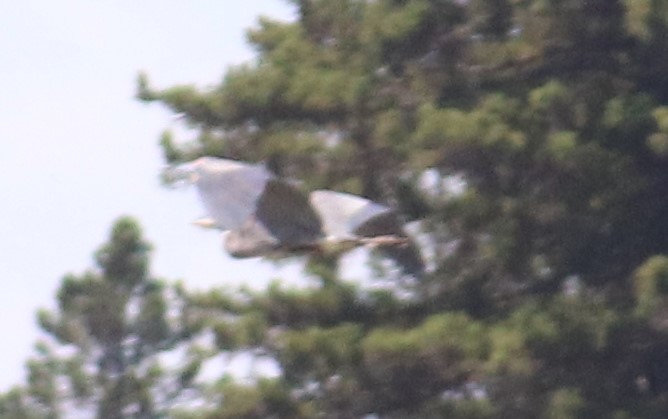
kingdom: Animalia
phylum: Chordata
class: Aves
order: Pelecaniformes
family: Ardeidae
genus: Ardea
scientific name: Ardea herodias
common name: Great blue heron
